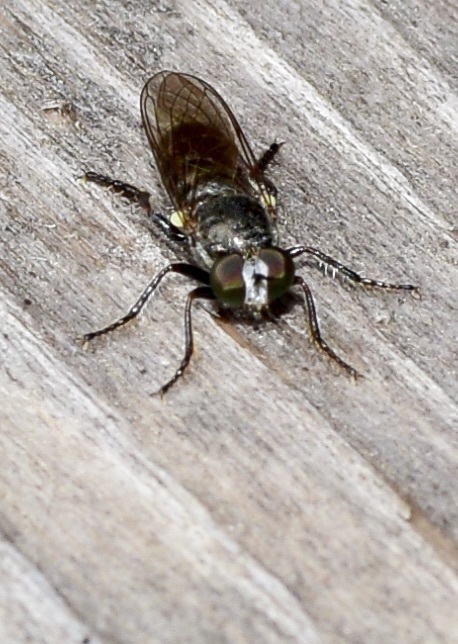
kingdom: Animalia
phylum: Arthropoda
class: Insecta
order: Diptera
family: Asilidae
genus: Atomosia
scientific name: Atomosia puella
